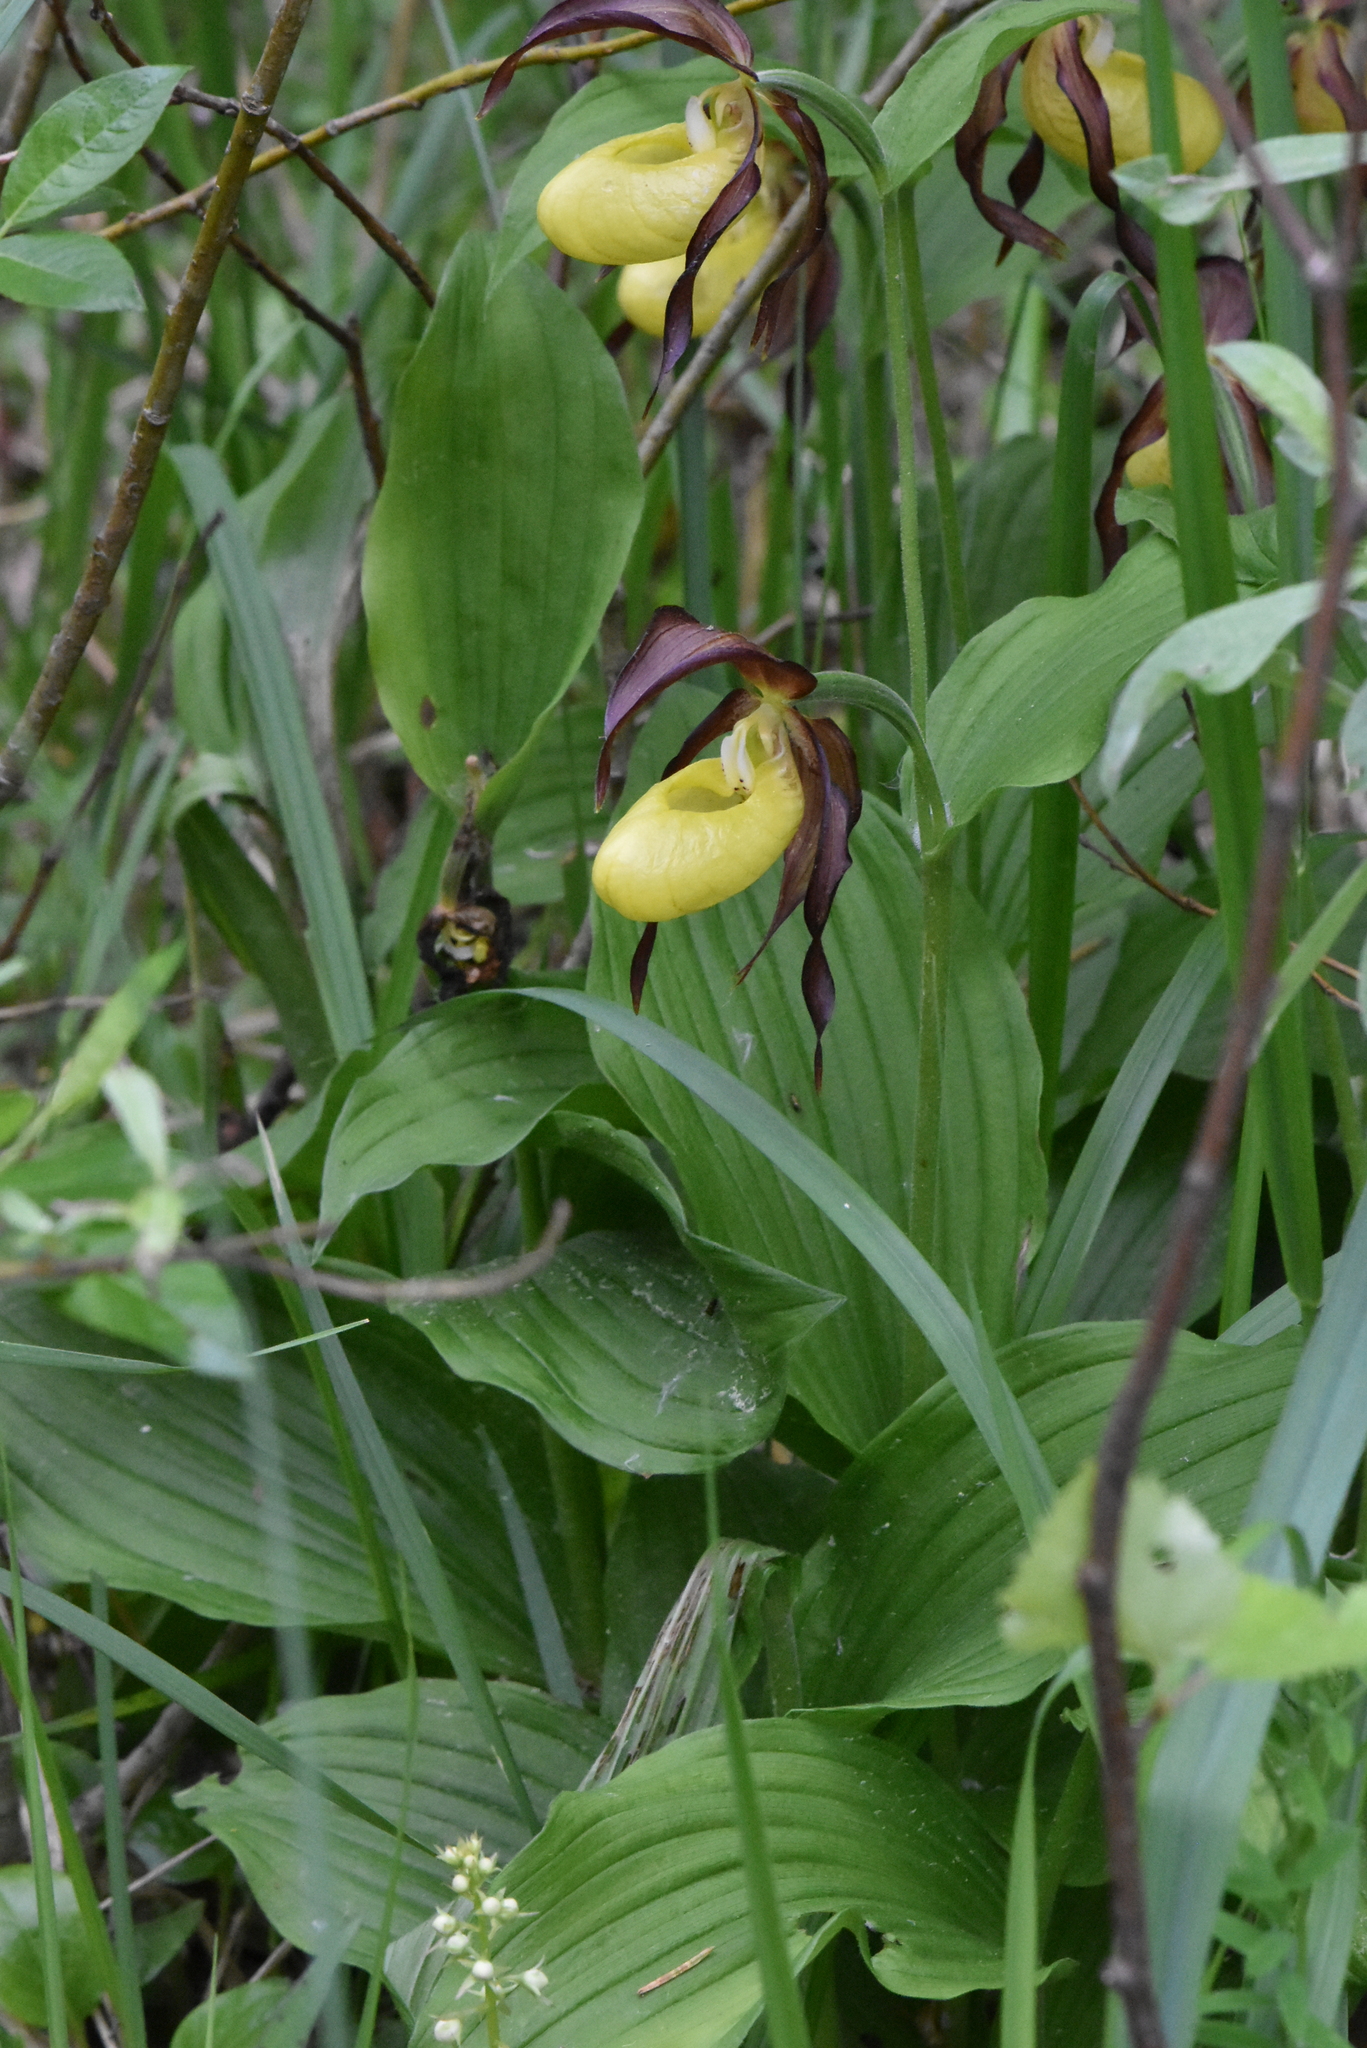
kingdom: Plantae
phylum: Tracheophyta
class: Liliopsida
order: Asparagales
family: Orchidaceae
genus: Cypripedium
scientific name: Cypripedium calceolus
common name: Lady's-slipper
